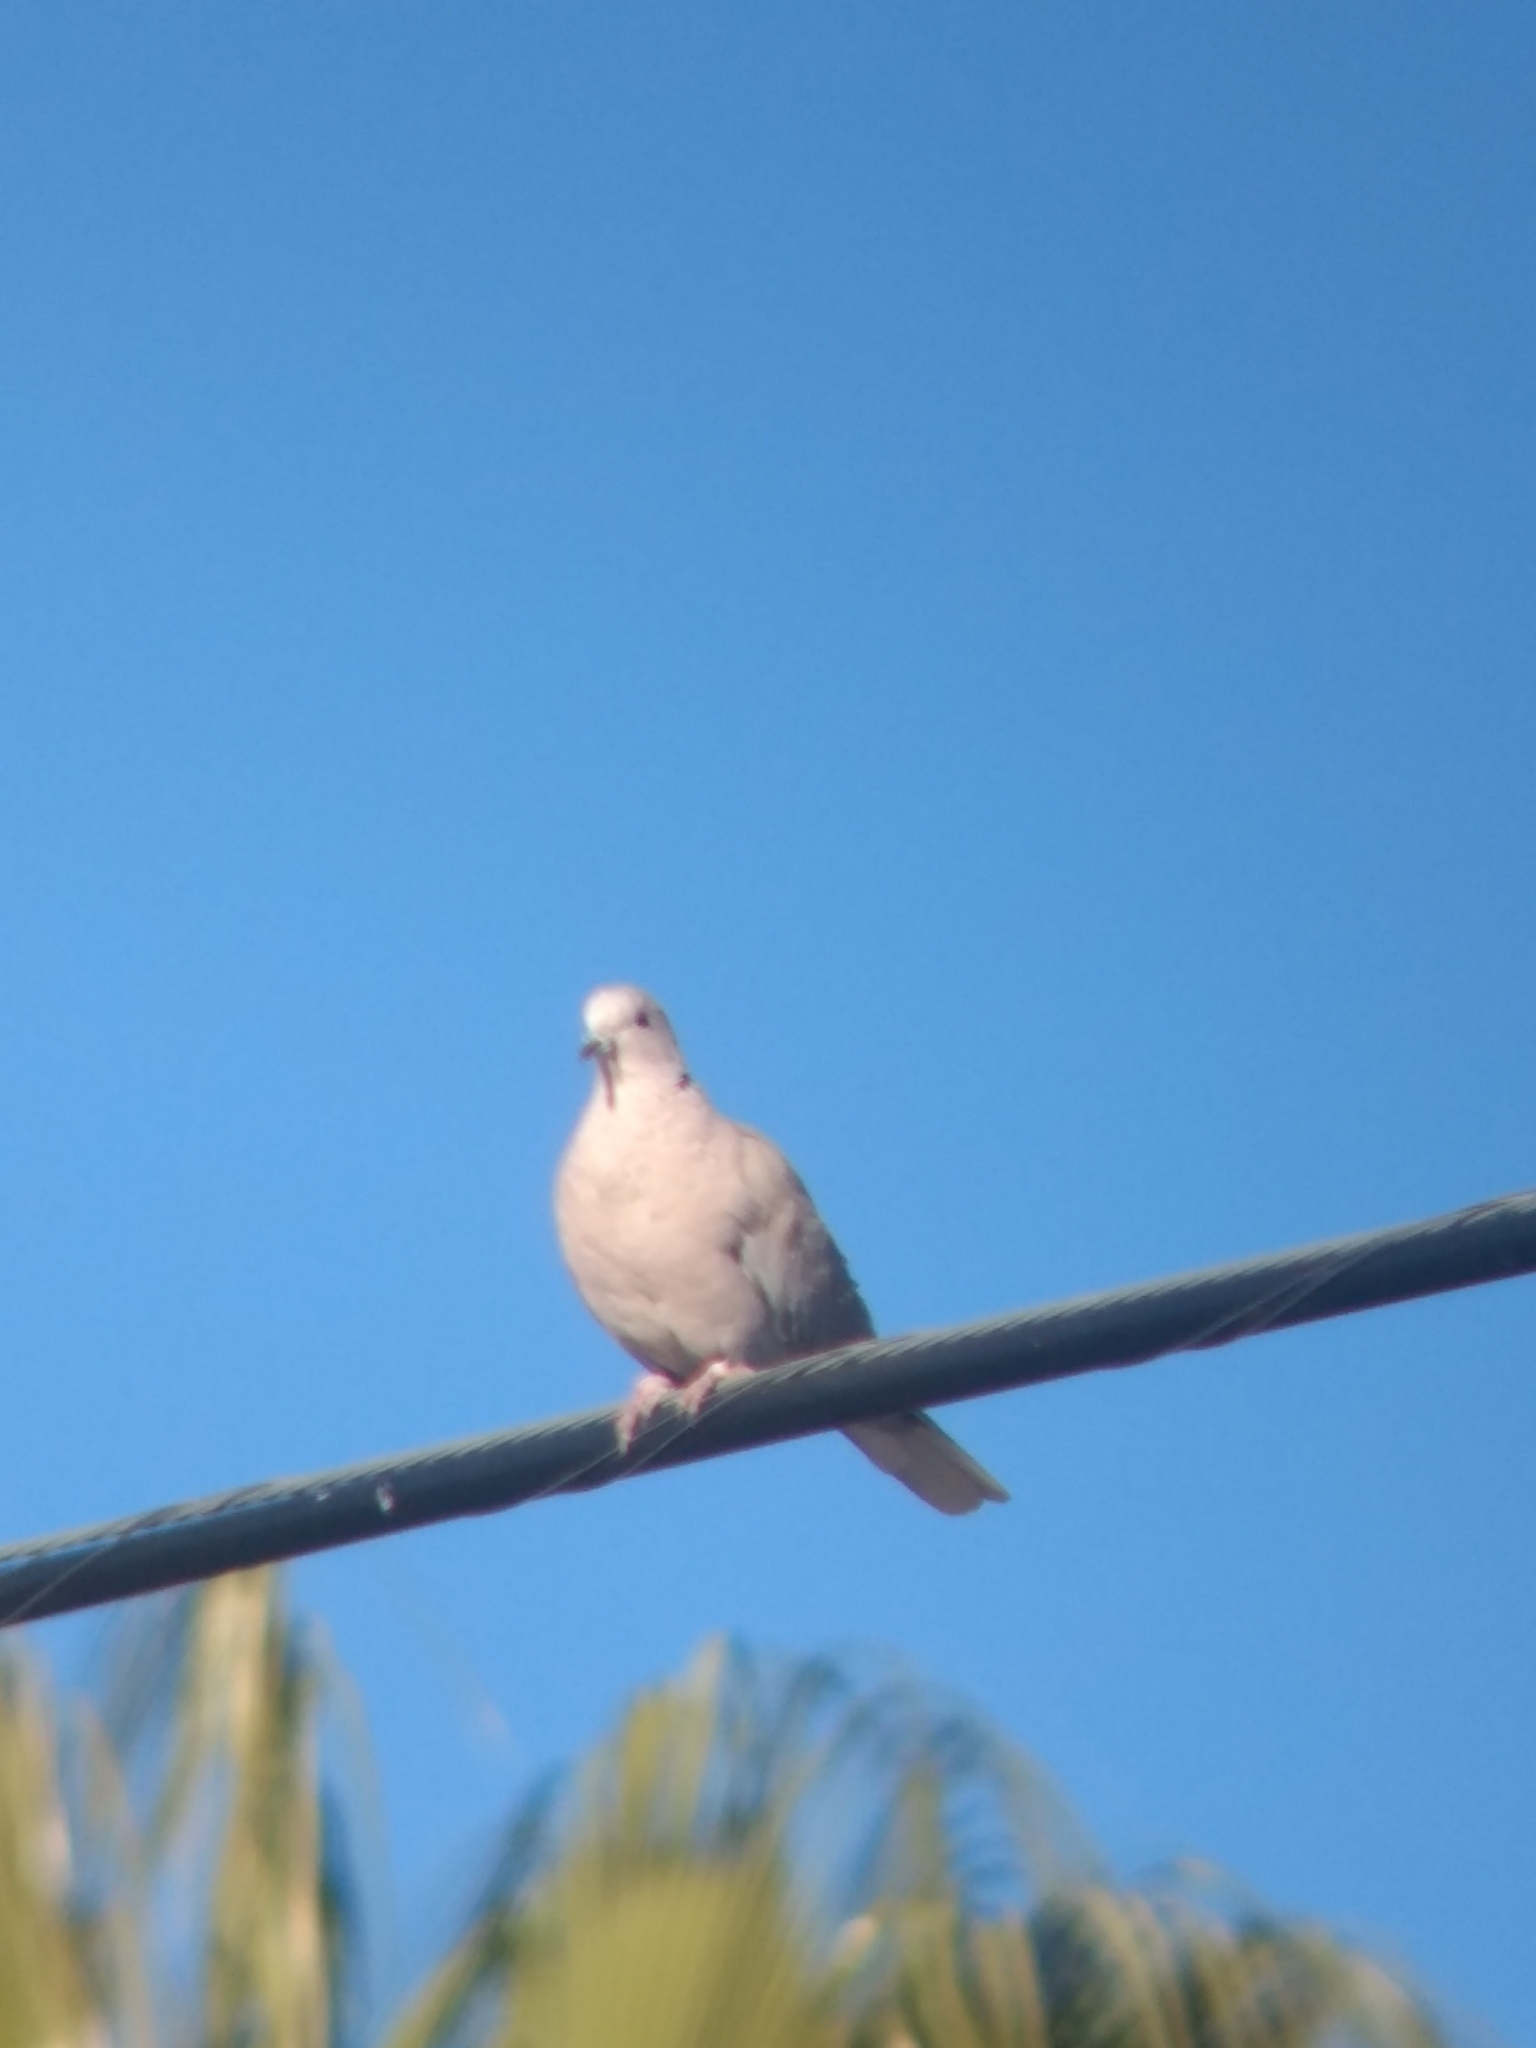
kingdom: Animalia
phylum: Chordata
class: Aves
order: Columbiformes
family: Columbidae
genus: Streptopelia
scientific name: Streptopelia decaocto
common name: Eurasian collared dove
